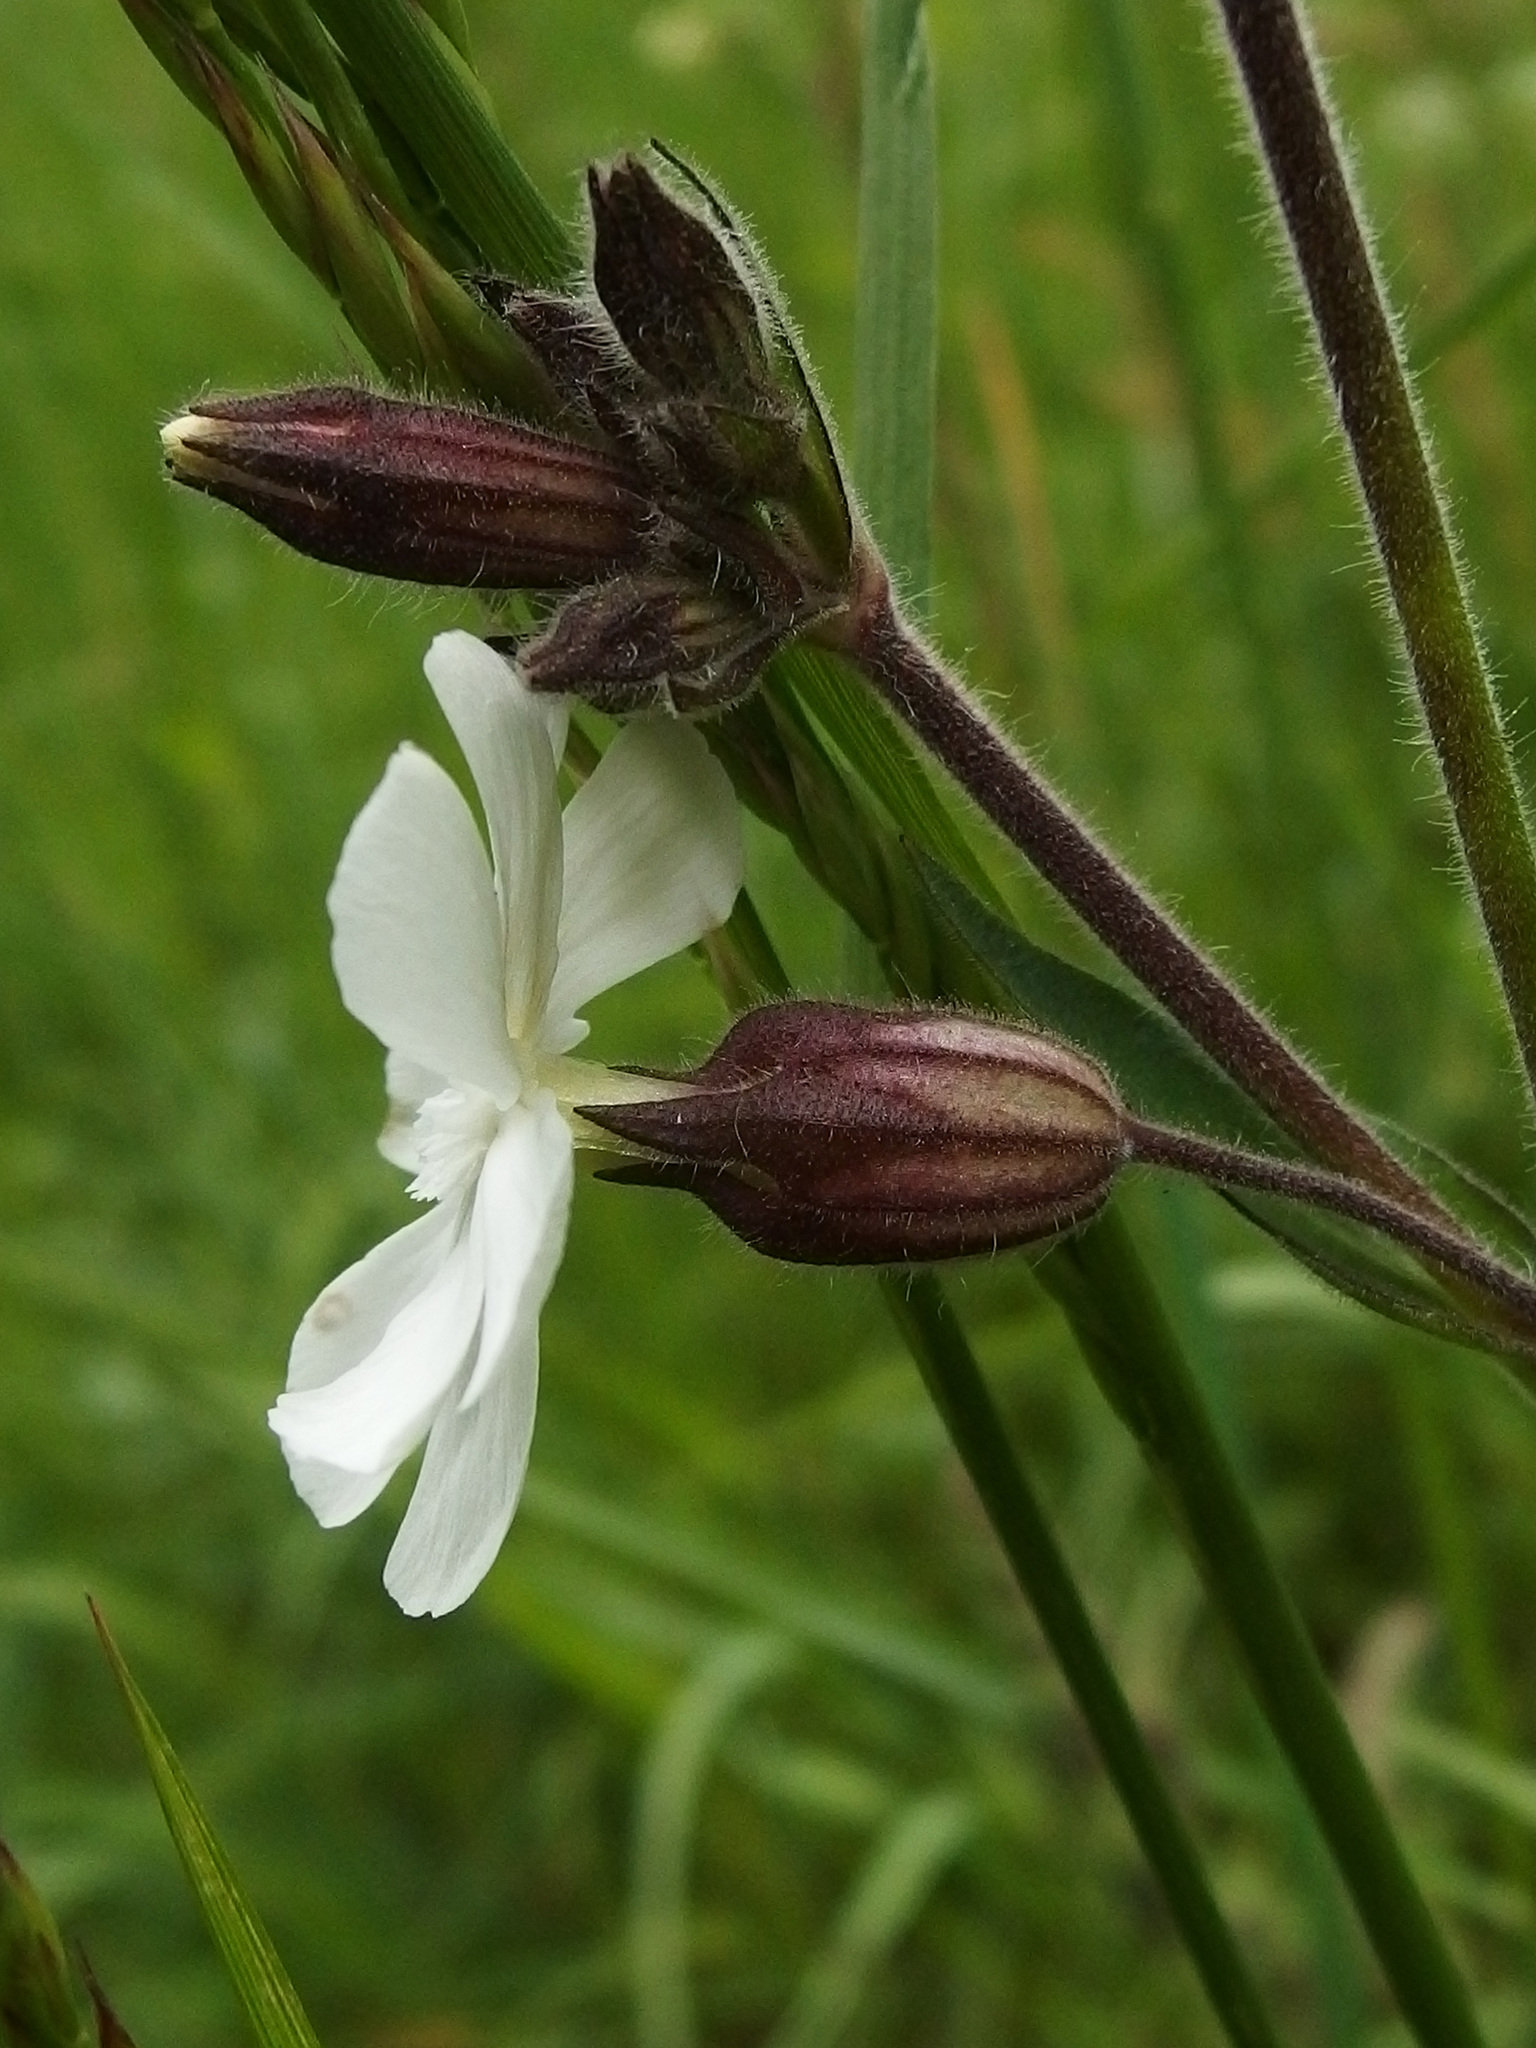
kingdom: Plantae
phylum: Tracheophyta
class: Magnoliopsida
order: Caryophyllales
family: Caryophyllaceae
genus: Silene
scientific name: Silene latifolia
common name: White campion
